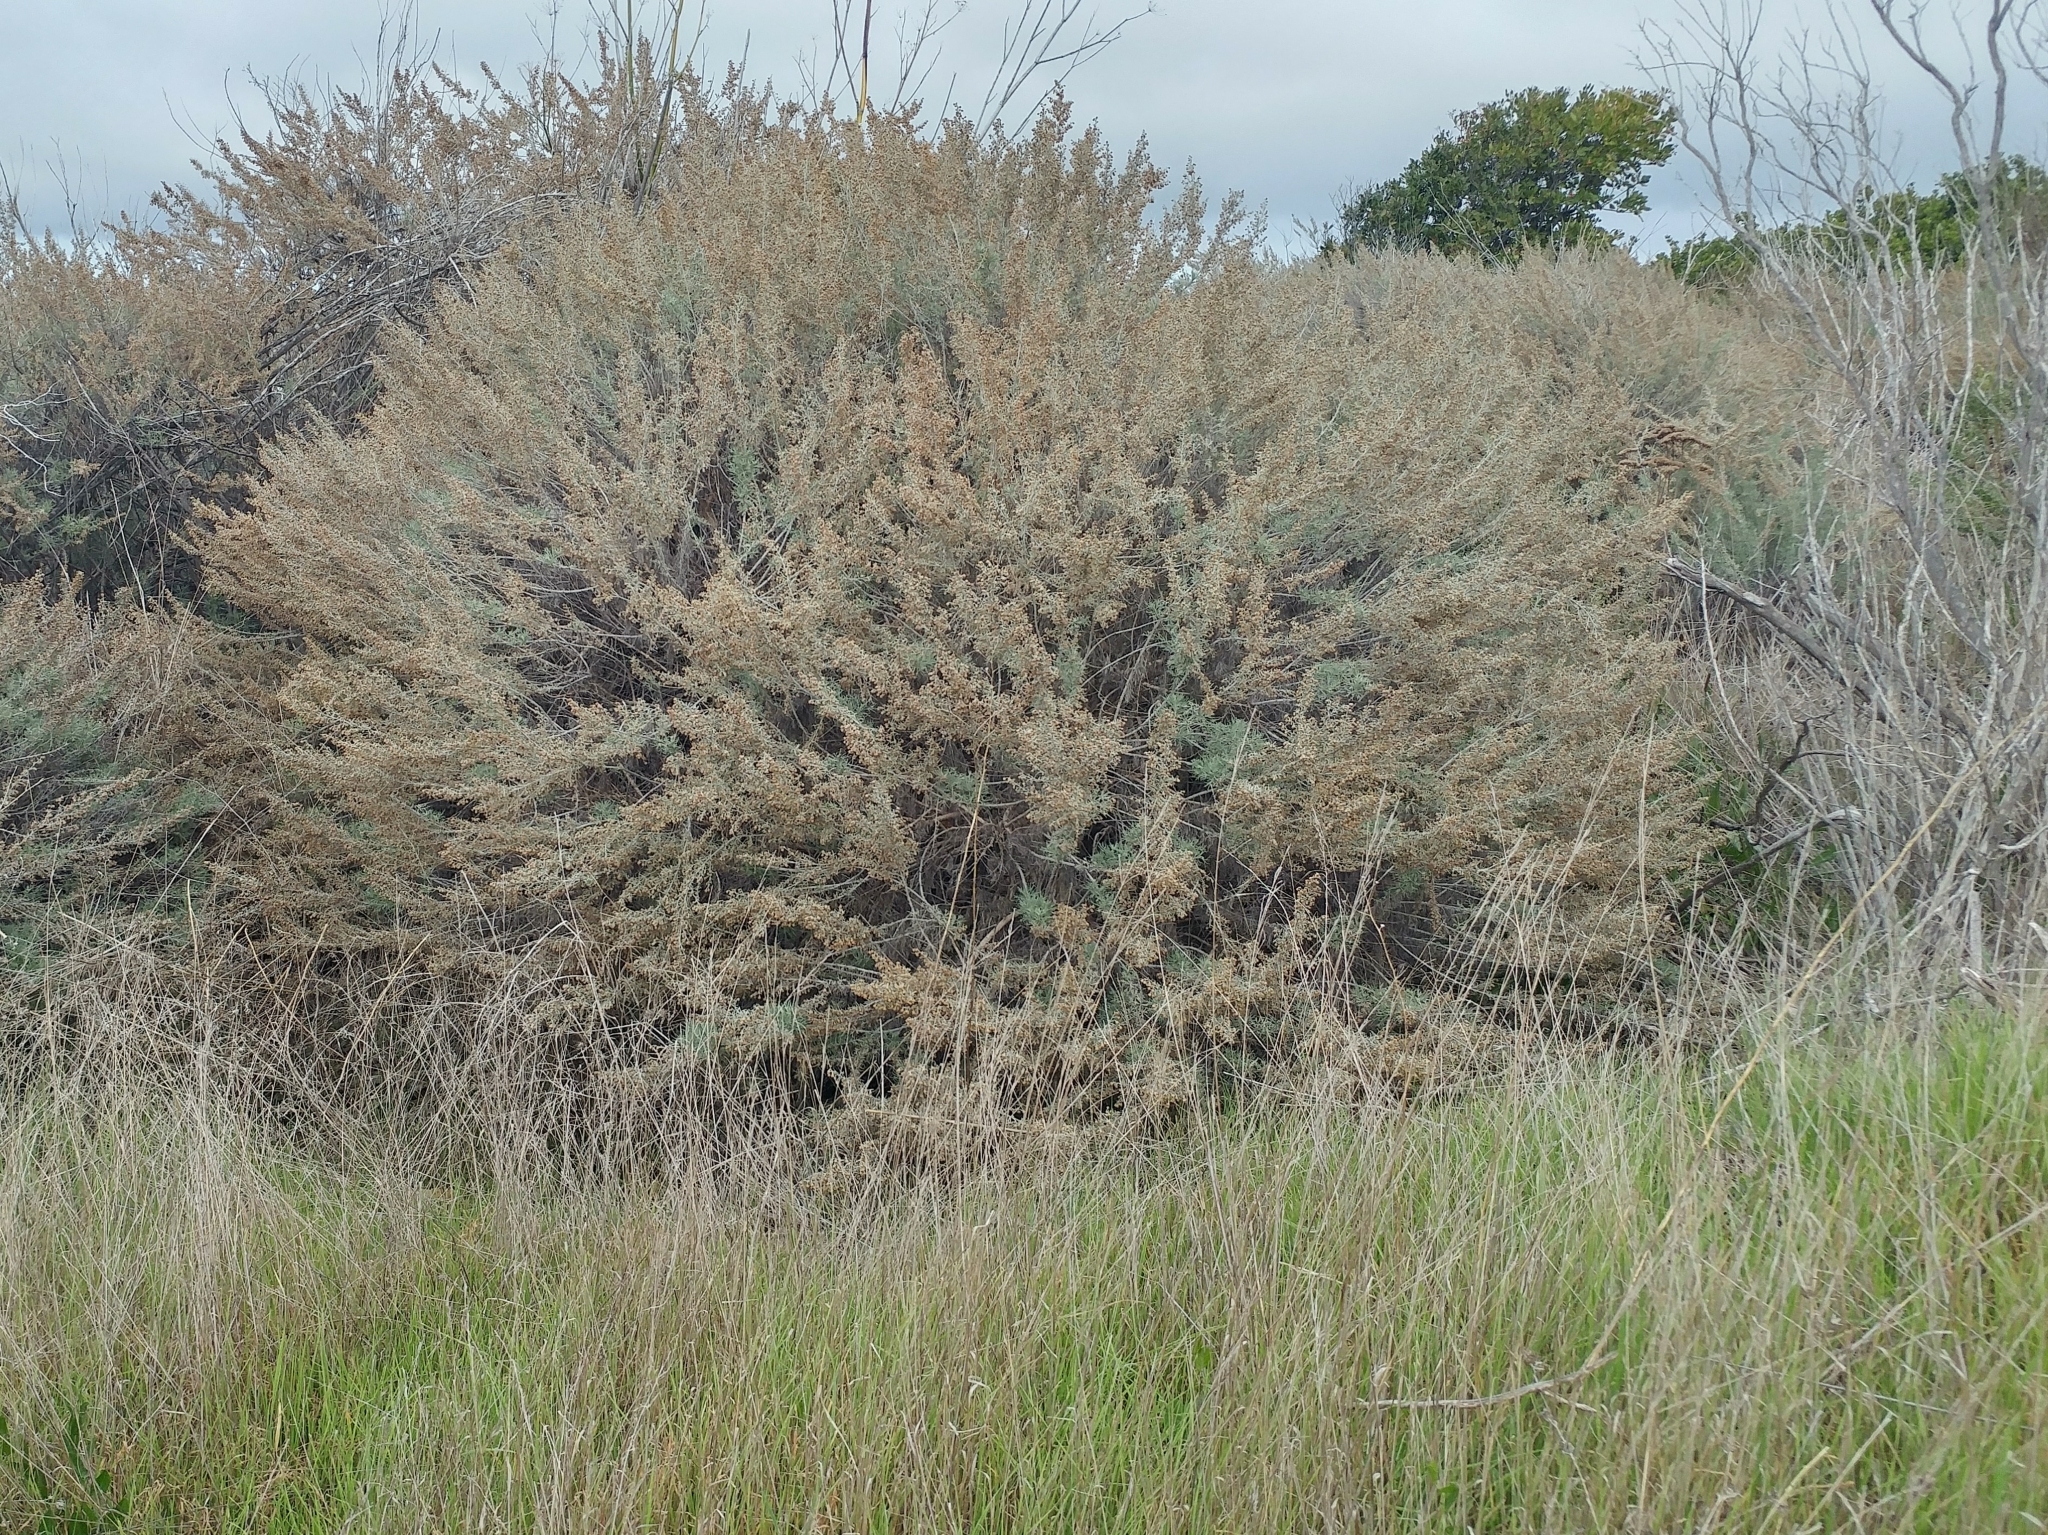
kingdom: Plantae
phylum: Tracheophyta
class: Magnoliopsida
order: Asterales
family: Asteraceae
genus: Artemisia
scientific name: Artemisia californica
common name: California sagebrush
